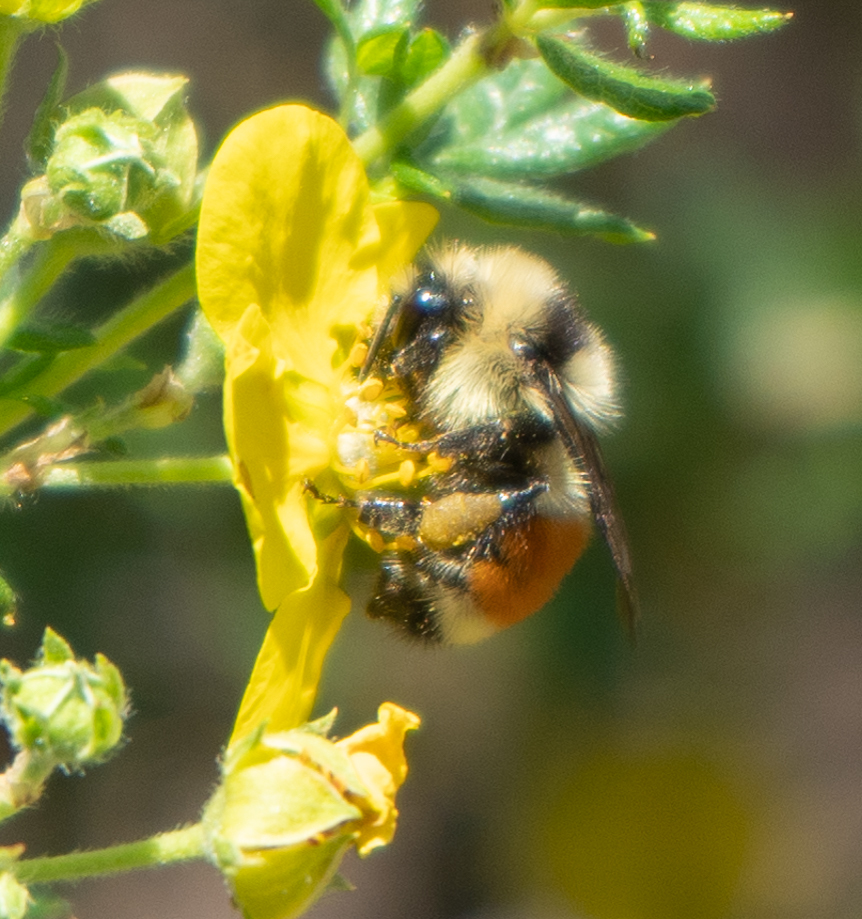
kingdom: Animalia
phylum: Arthropoda
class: Insecta
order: Hymenoptera
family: Apidae
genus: Bombus
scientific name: Bombus huntii
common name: Hunt bumble bee
